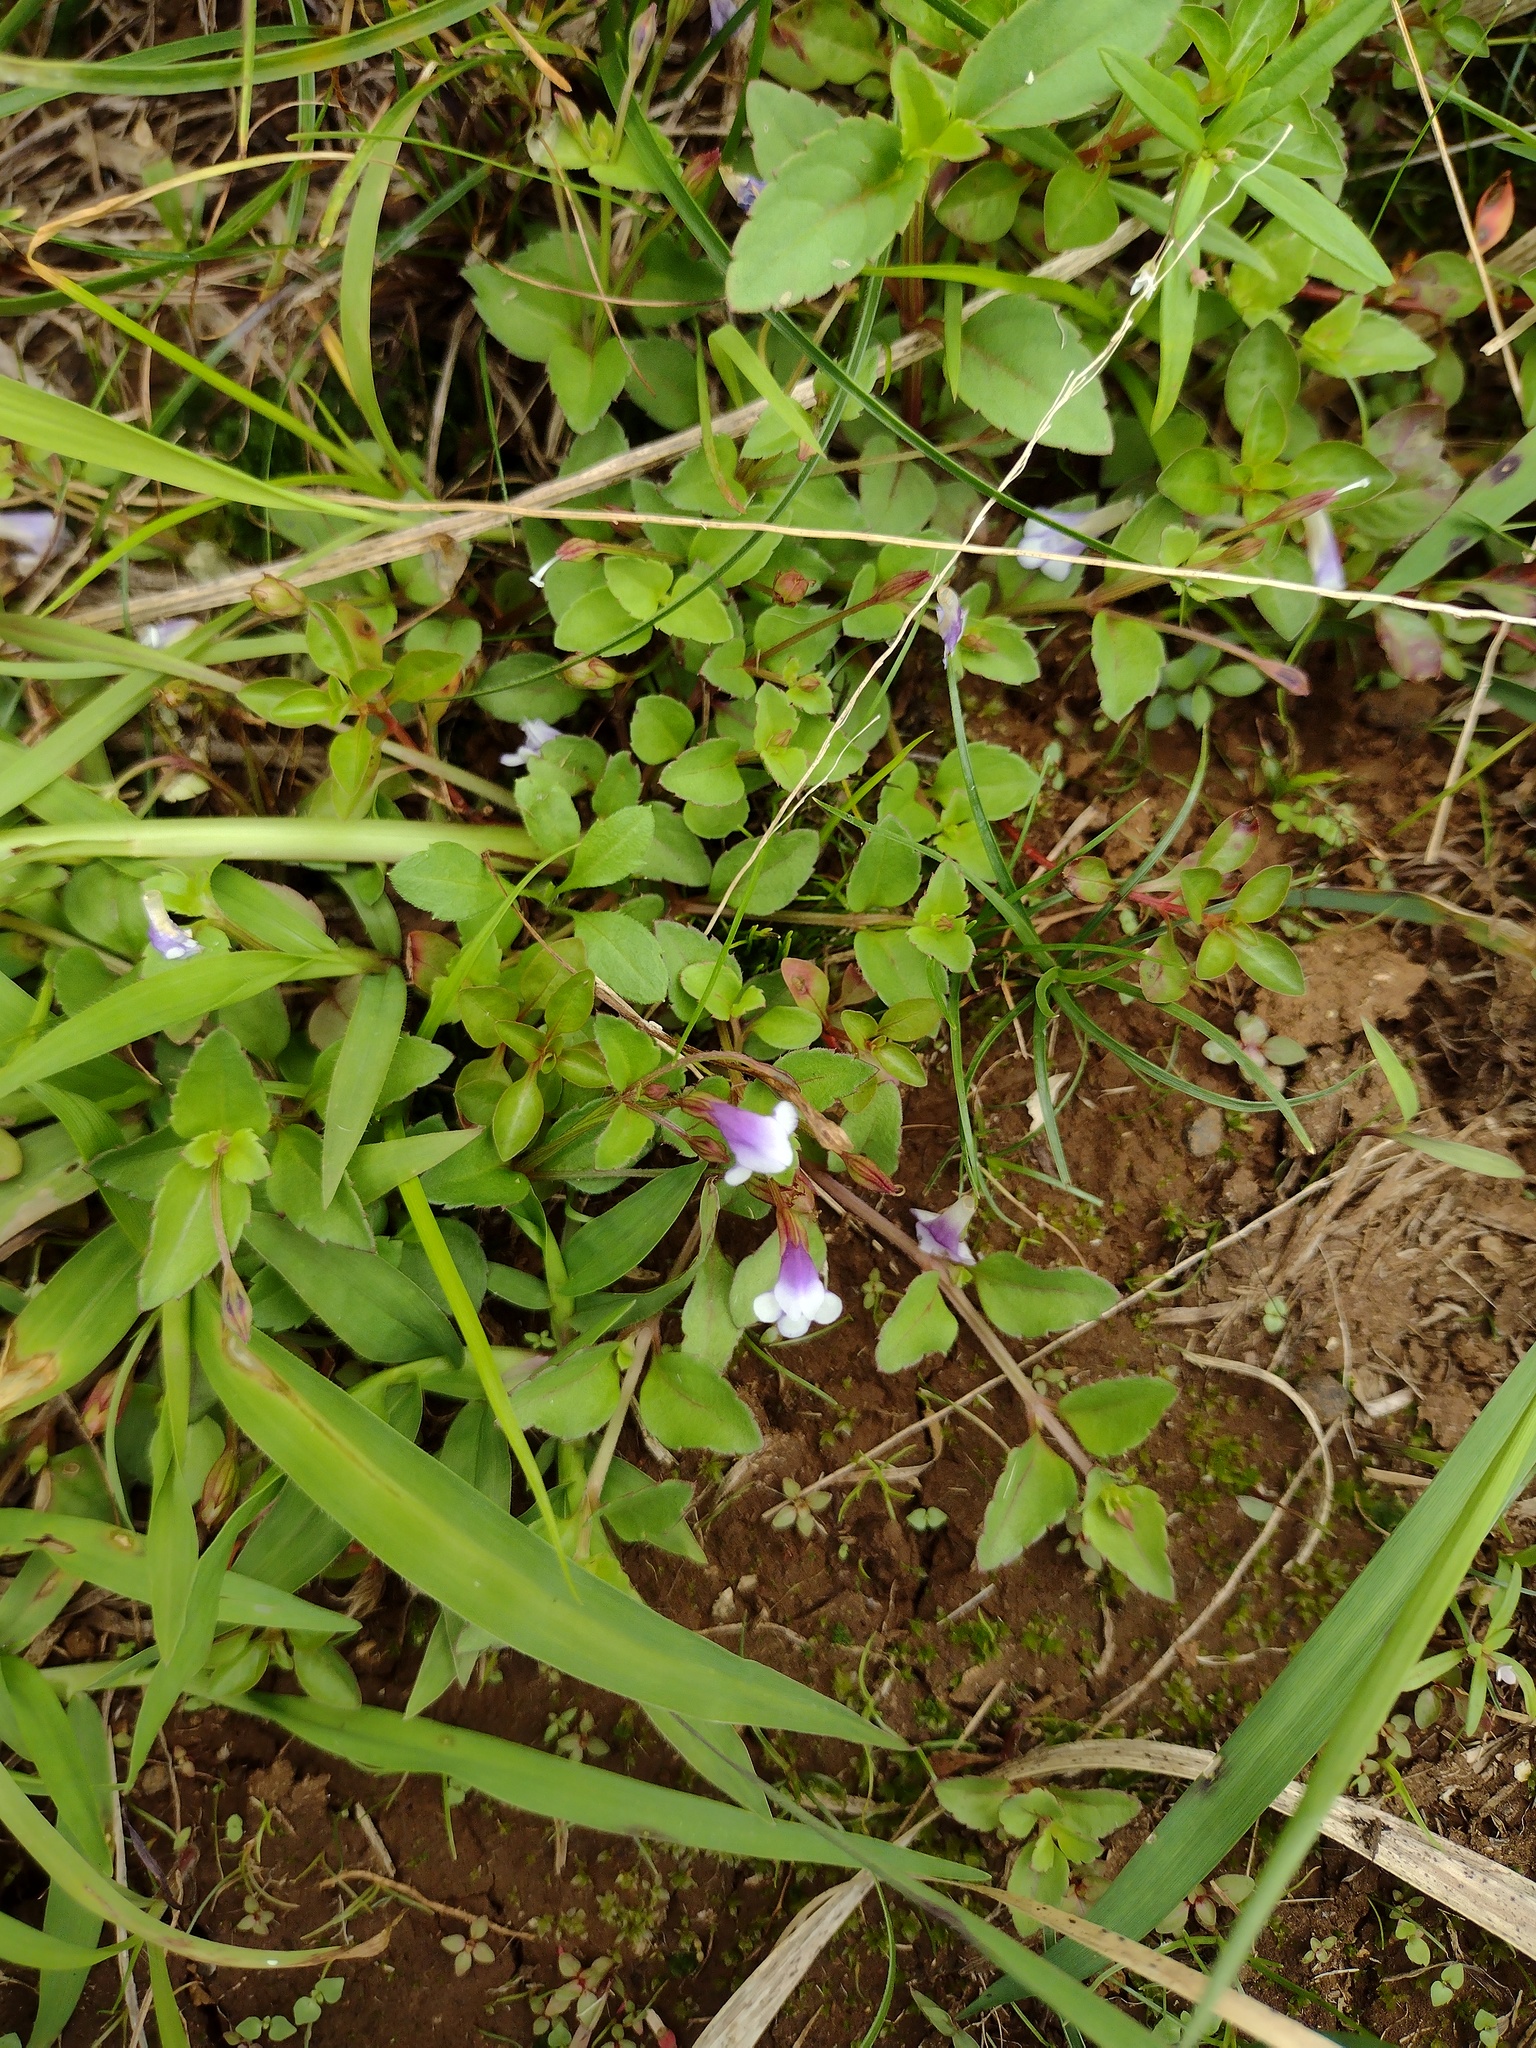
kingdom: Plantae
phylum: Tracheophyta
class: Magnoliopsida
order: Lamiales
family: Linderniaceae
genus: Torenia
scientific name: Torenia crustacea
